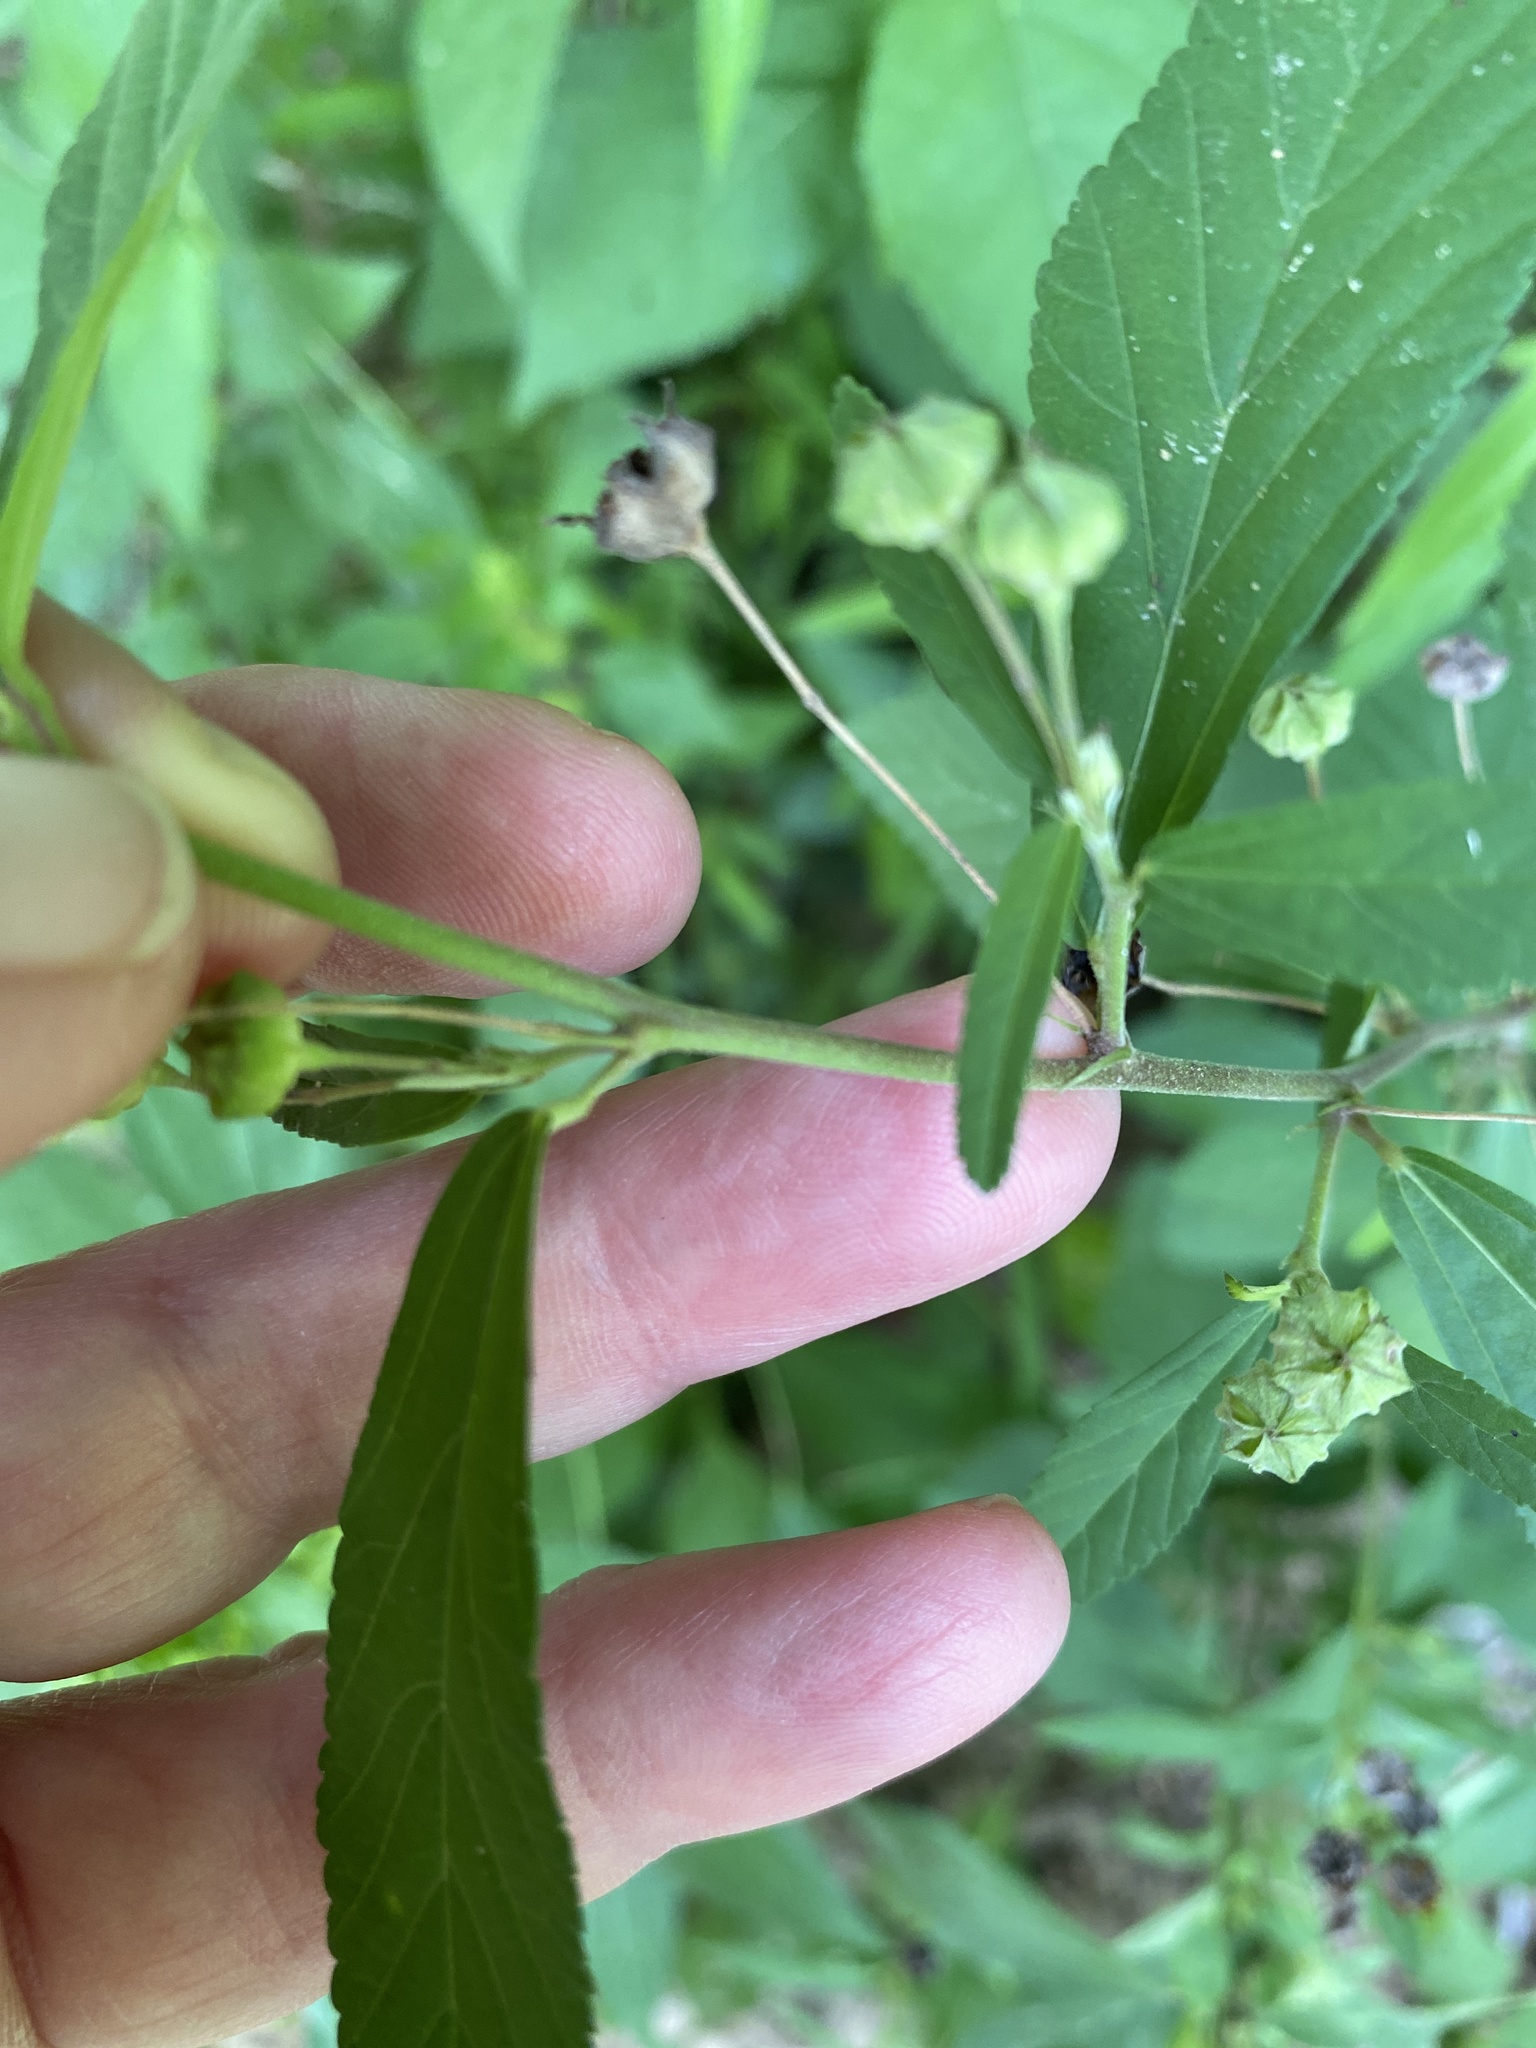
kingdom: Plantae
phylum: Tracheophyta
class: Magnoliopsida
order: Malvales
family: Malvaceae
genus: Sida
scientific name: Sida rhombifolia
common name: Queensland-hemp
